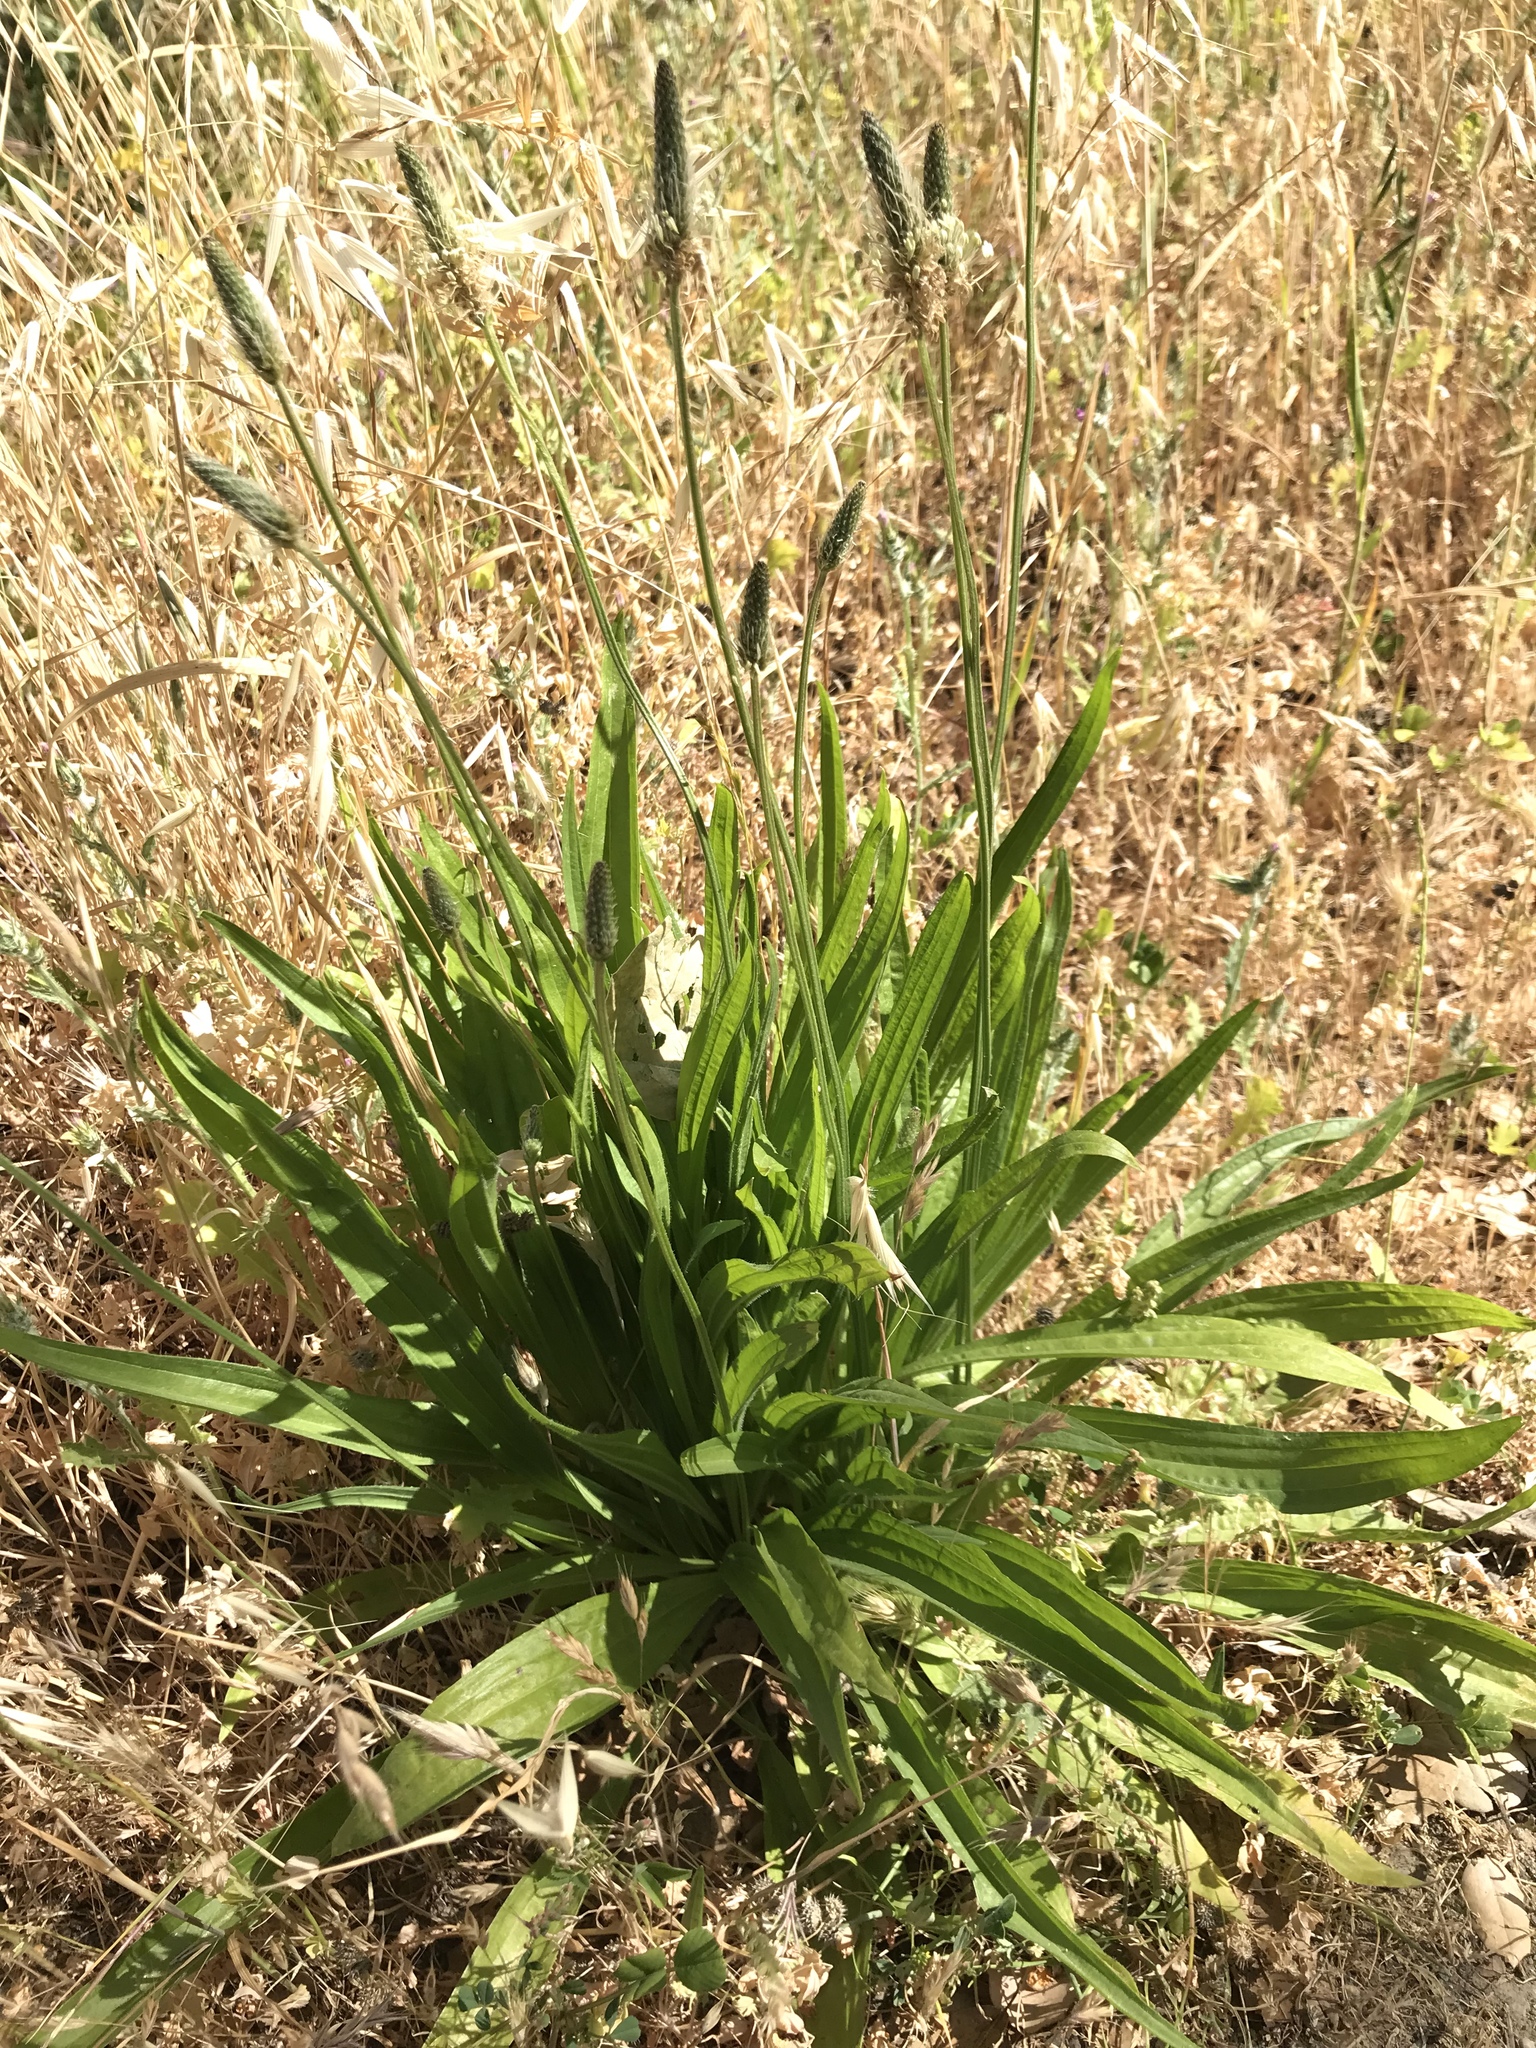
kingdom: Plantae
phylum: Tracheophyta
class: Magnoliopsida
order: Lamiales
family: Plantaginaceae
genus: Plantago
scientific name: Plantago lanceolata
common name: Ribwort plantain
